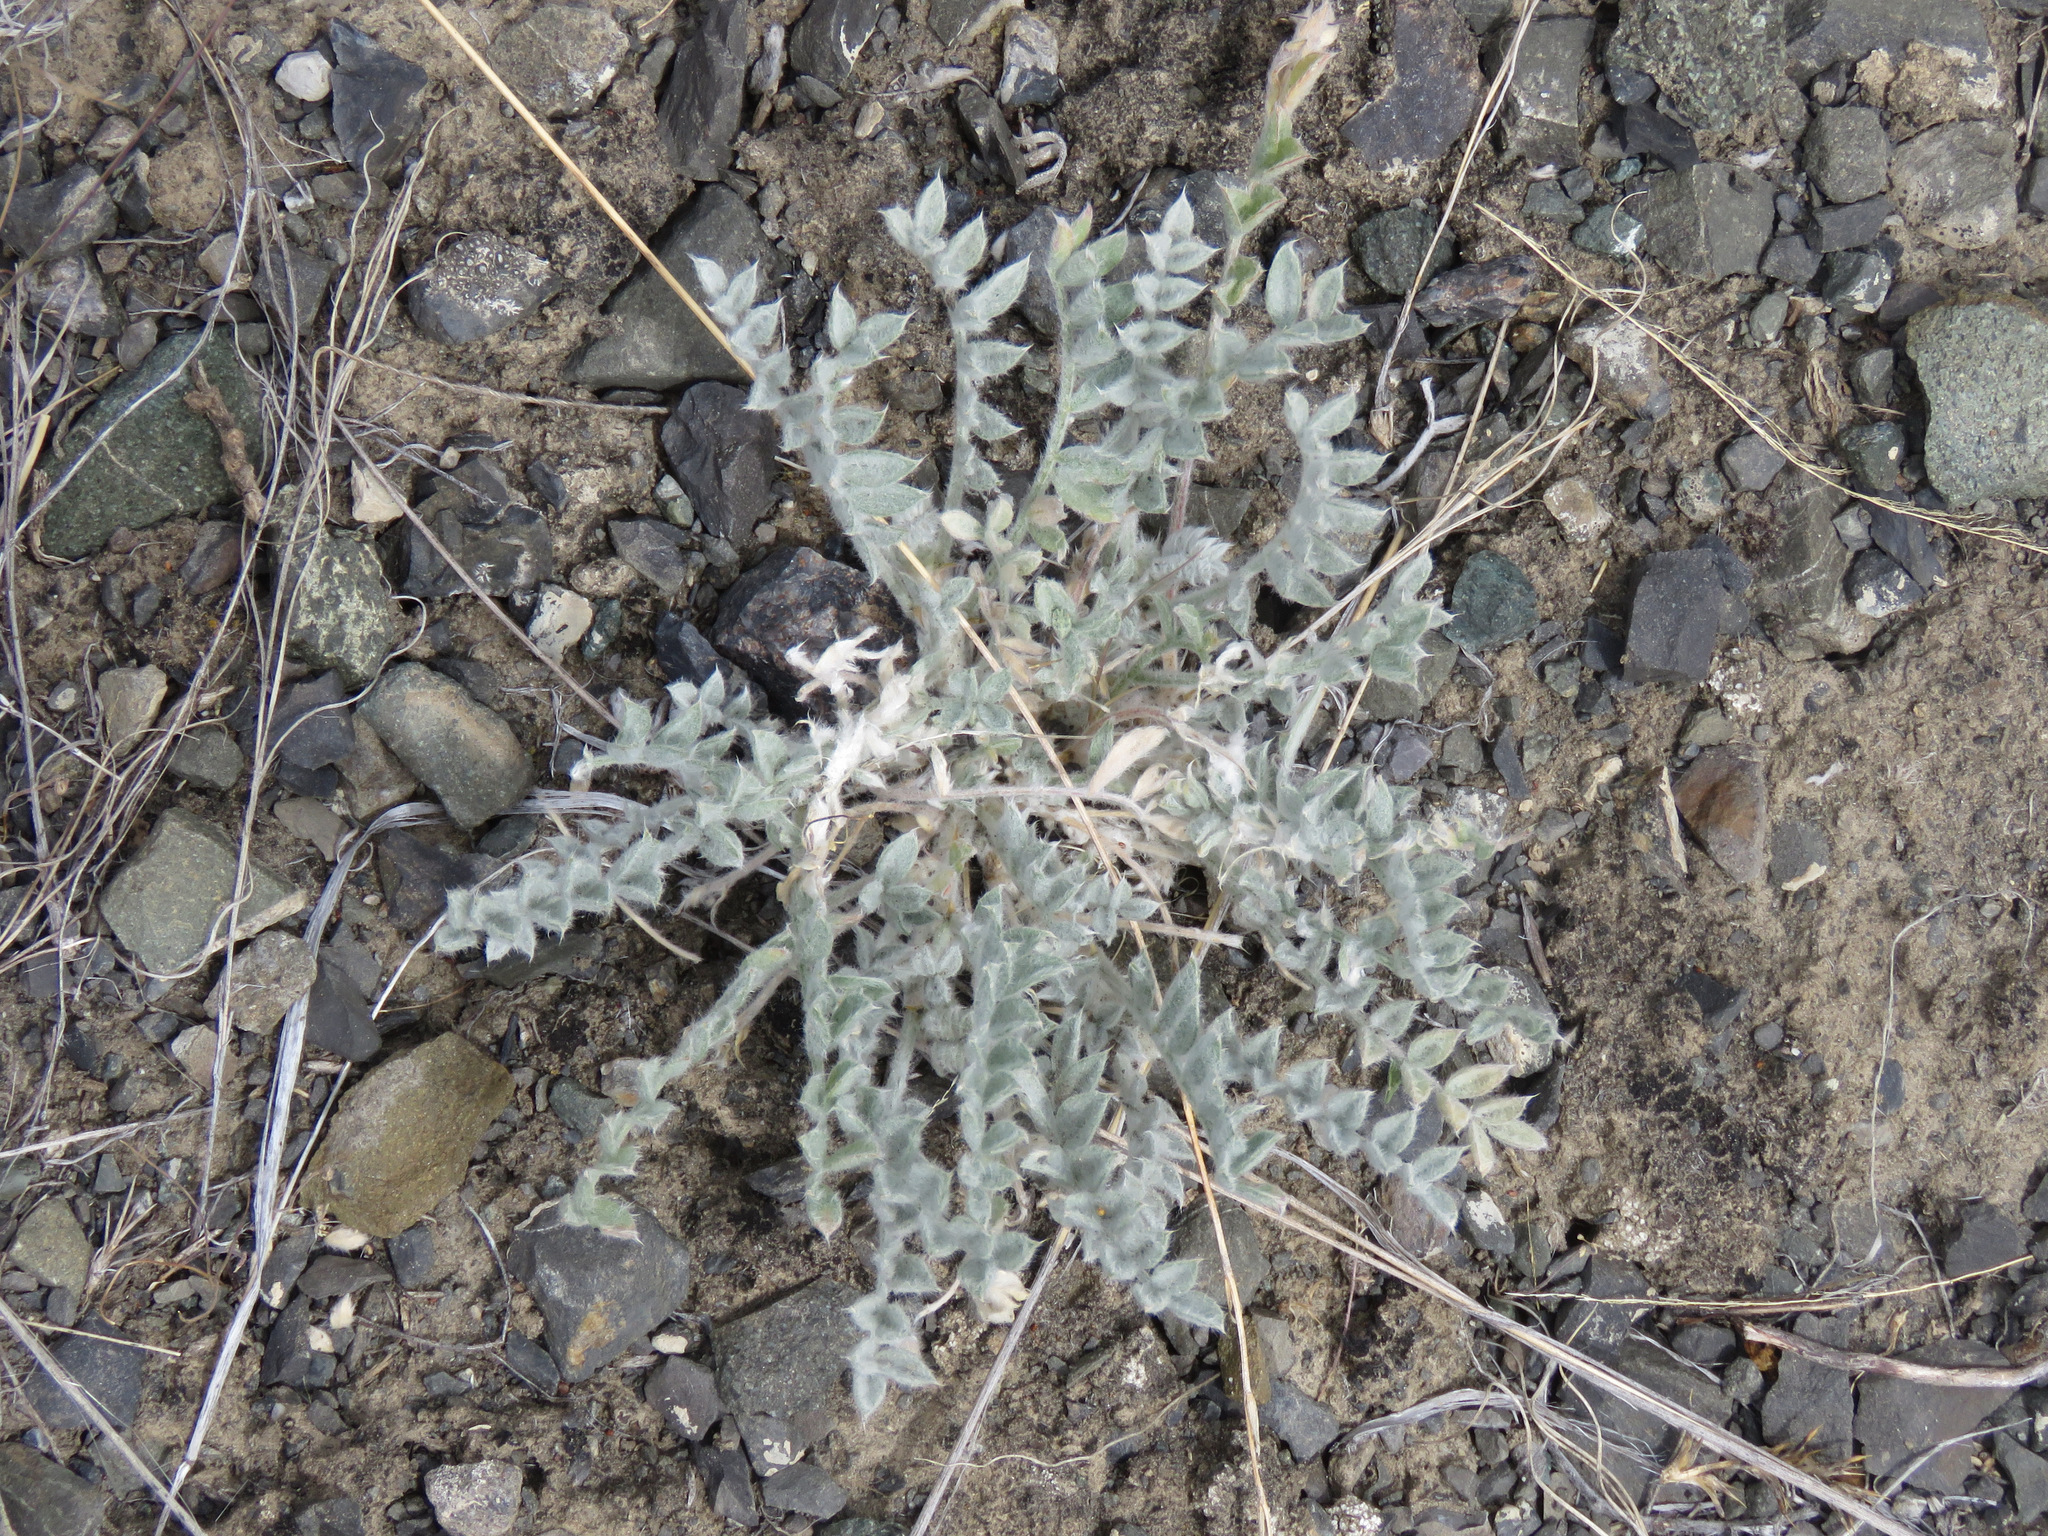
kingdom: Plantae
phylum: Tracheophyta
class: Magnoliopsida
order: Fabales
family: Fabaceae
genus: Astragalus
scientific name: Astragalus purshii
